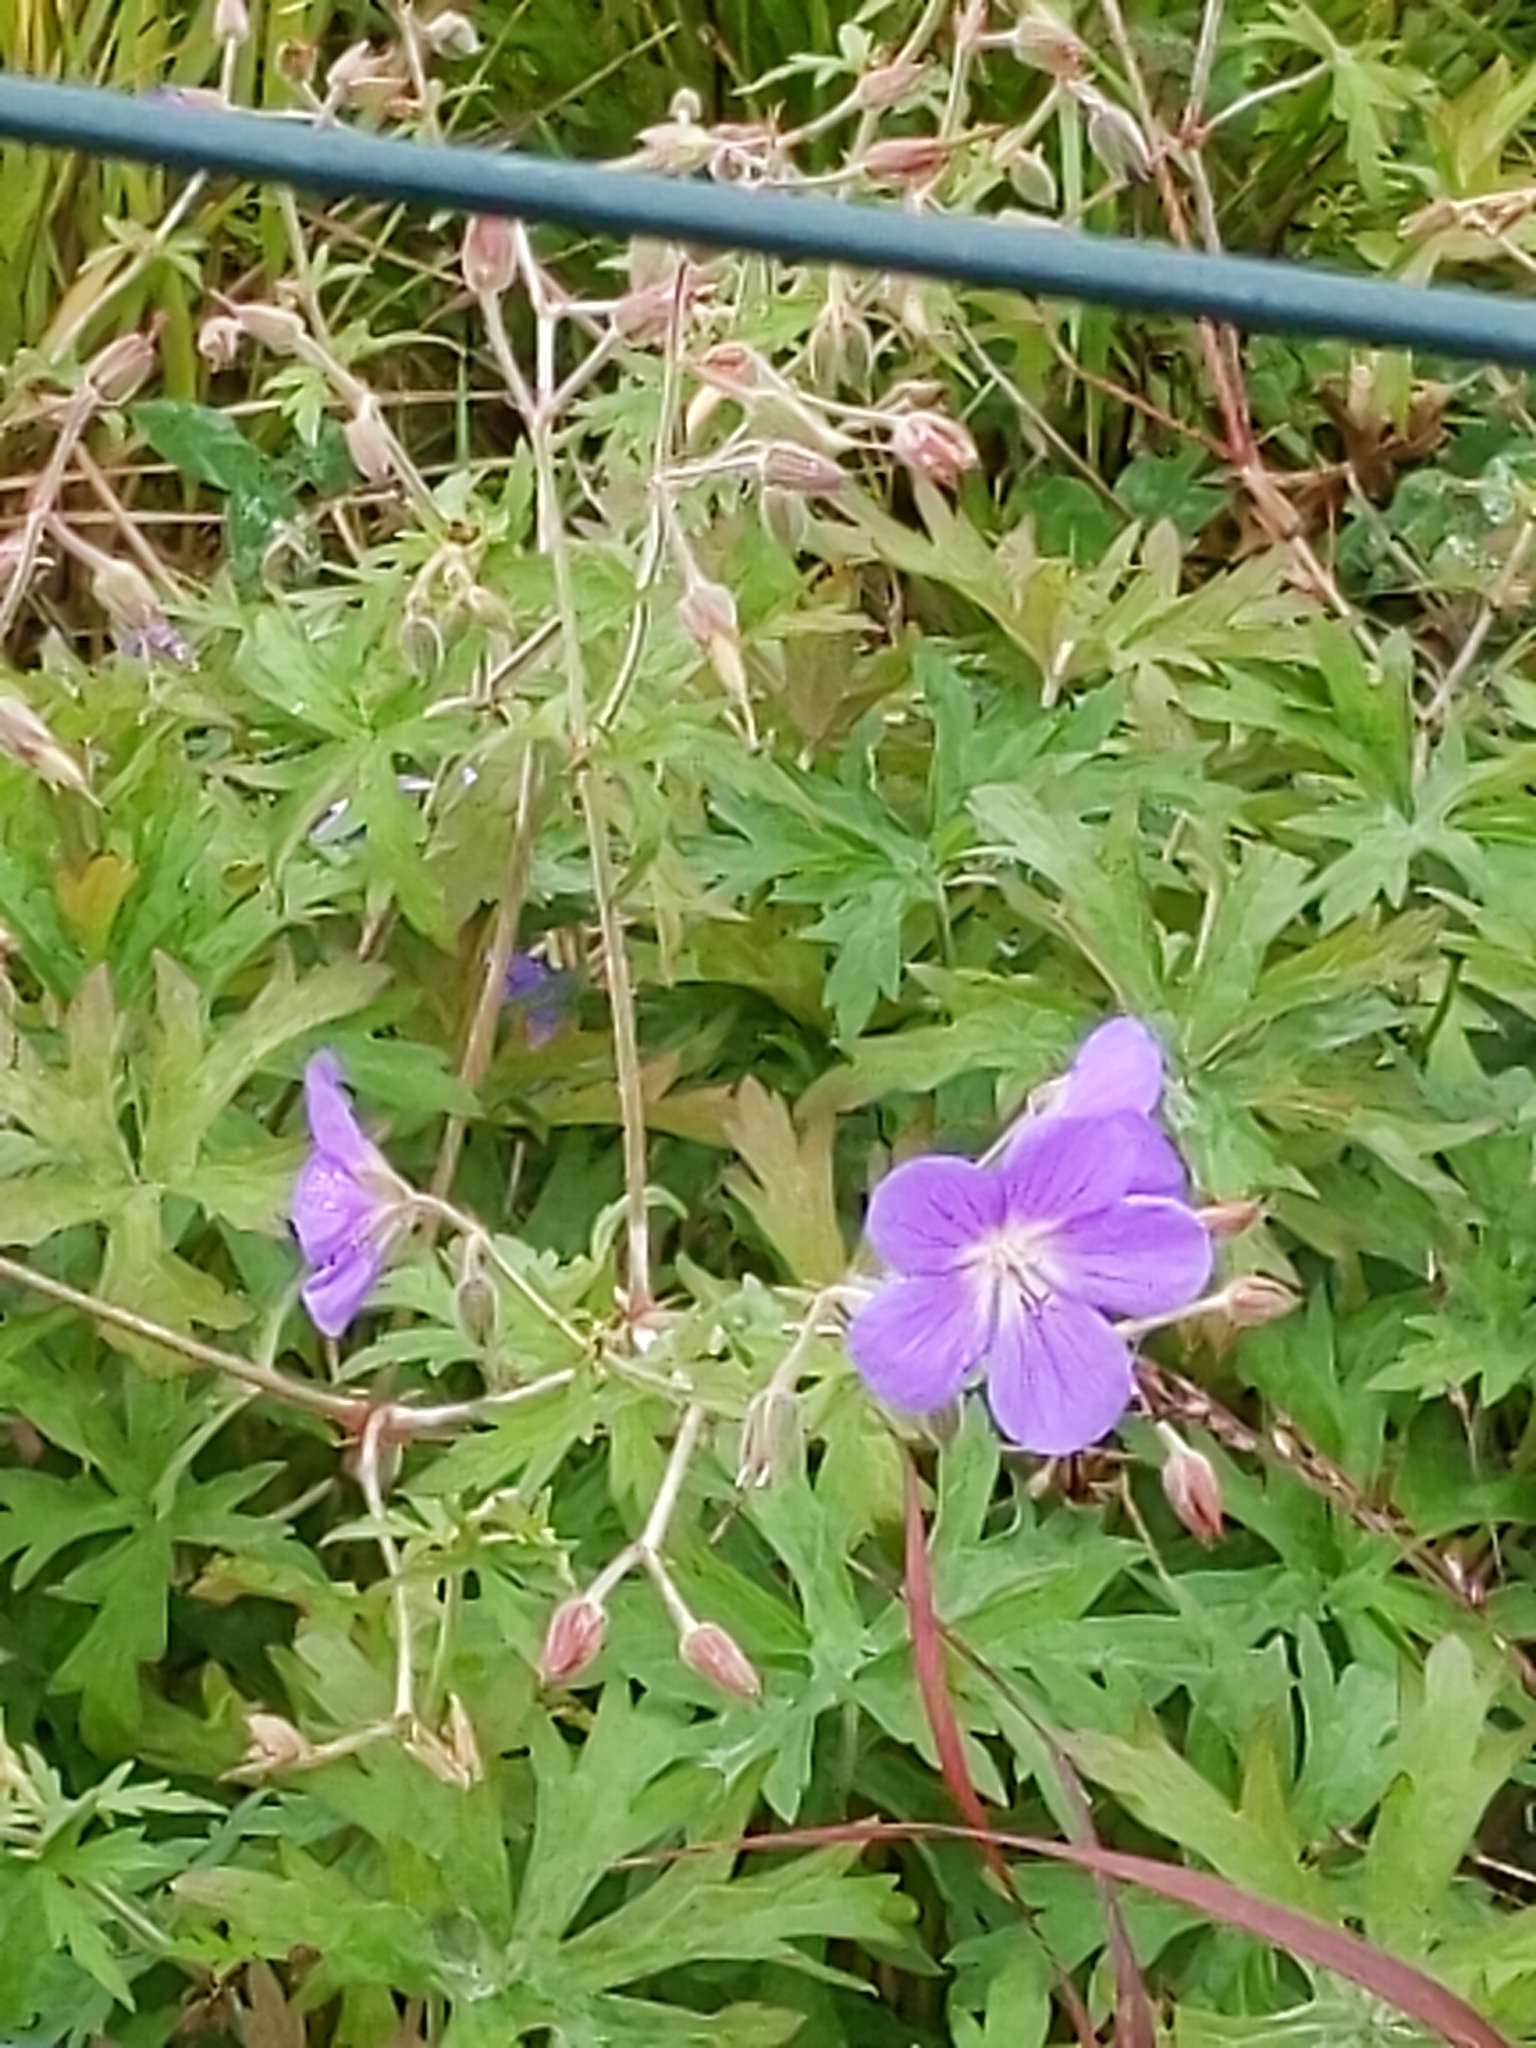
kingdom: Plantae
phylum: Tracheophyta
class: Magnoliopsida
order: Geraniales
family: Geraniaceae
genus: Geranium
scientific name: Geranium pratense
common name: Meadow crane's-bill
